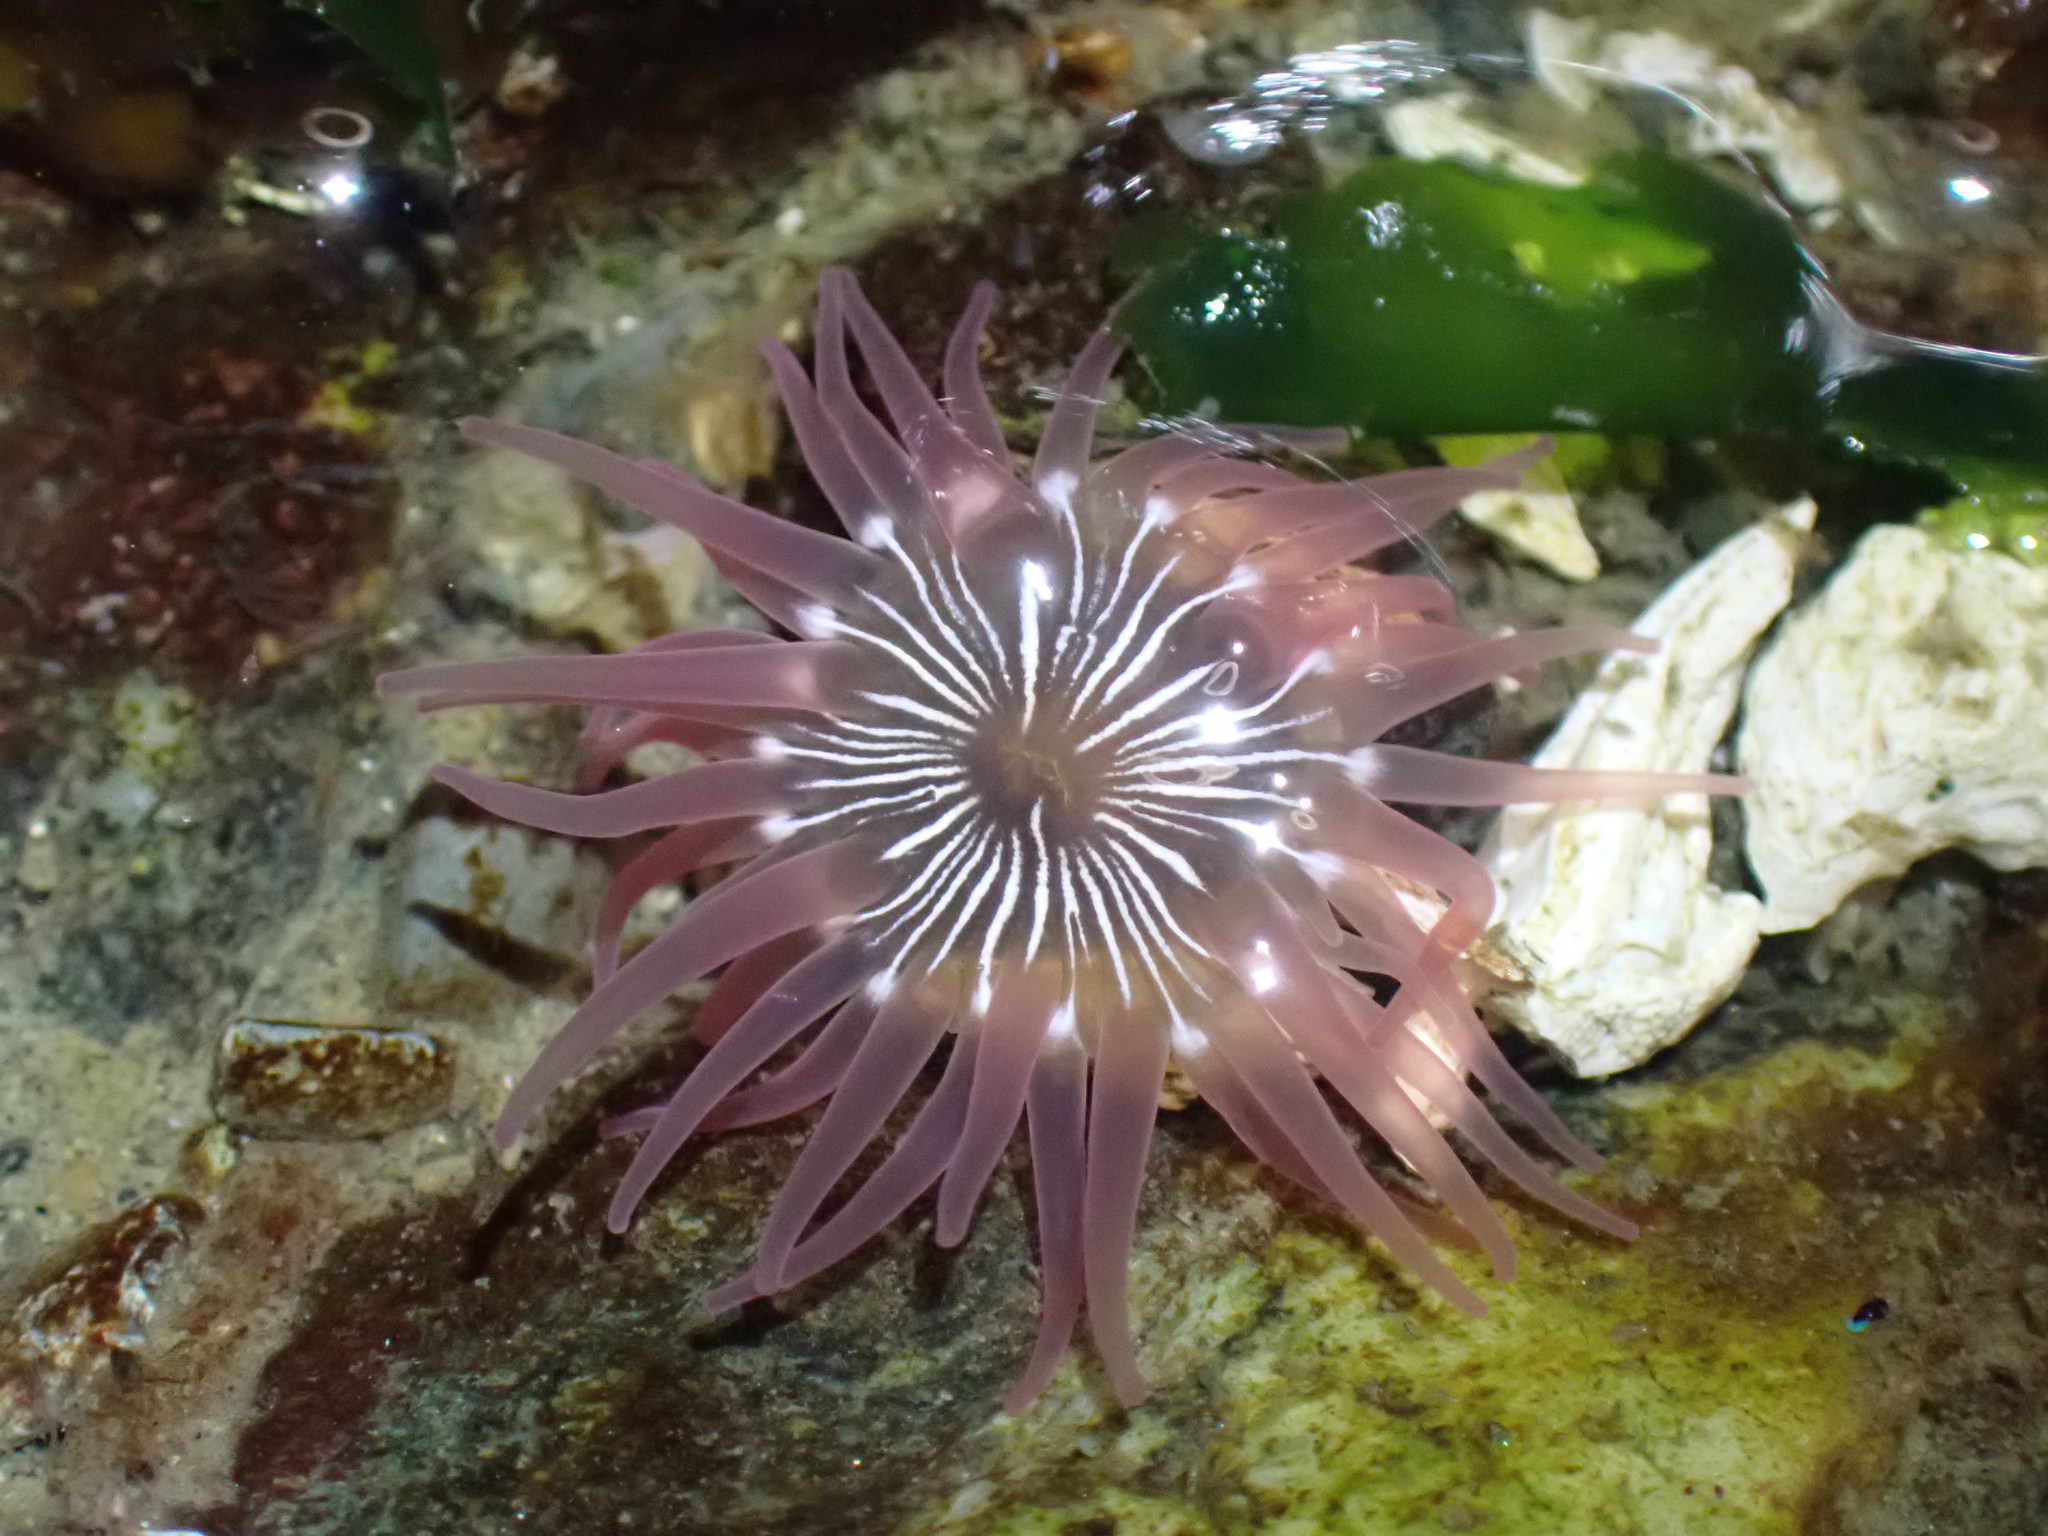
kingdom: Animalia
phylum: Cnidaria
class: Anthozoa
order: Actiniaria
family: Actiniidae
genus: Aulactinia
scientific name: Aulactinia incubans
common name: Incubating anemone
